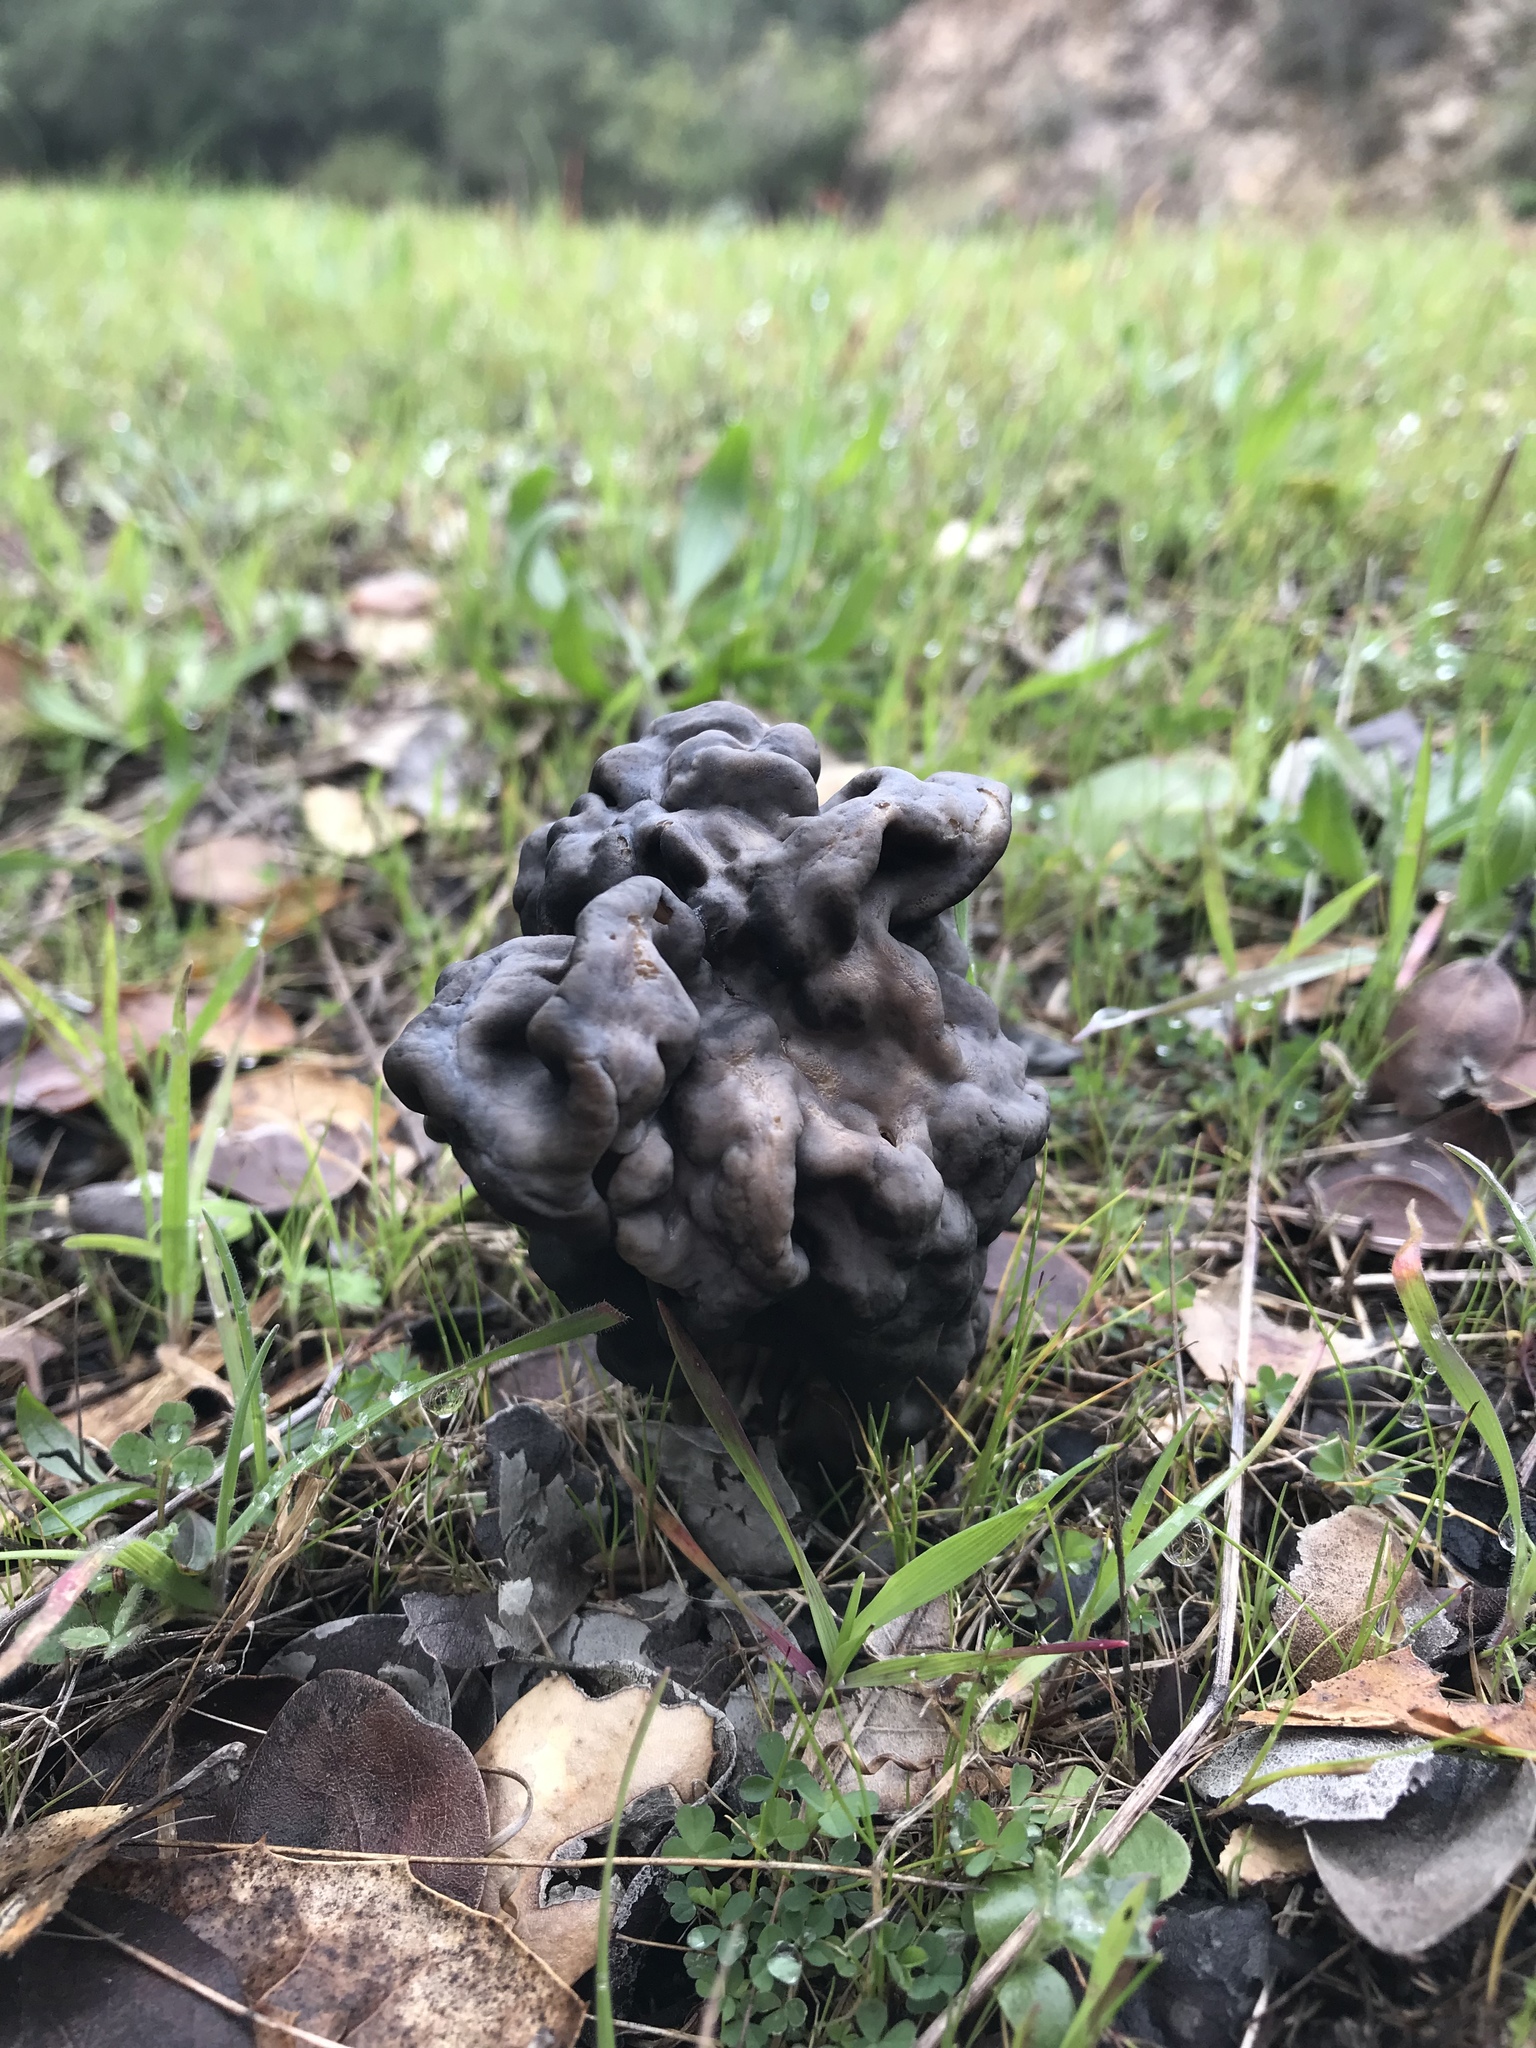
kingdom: Fungi
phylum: Ascomycota
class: Pezizomycetes
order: Pezizales
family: Helvellaceae
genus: Helvella
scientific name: Helvella dryophila
